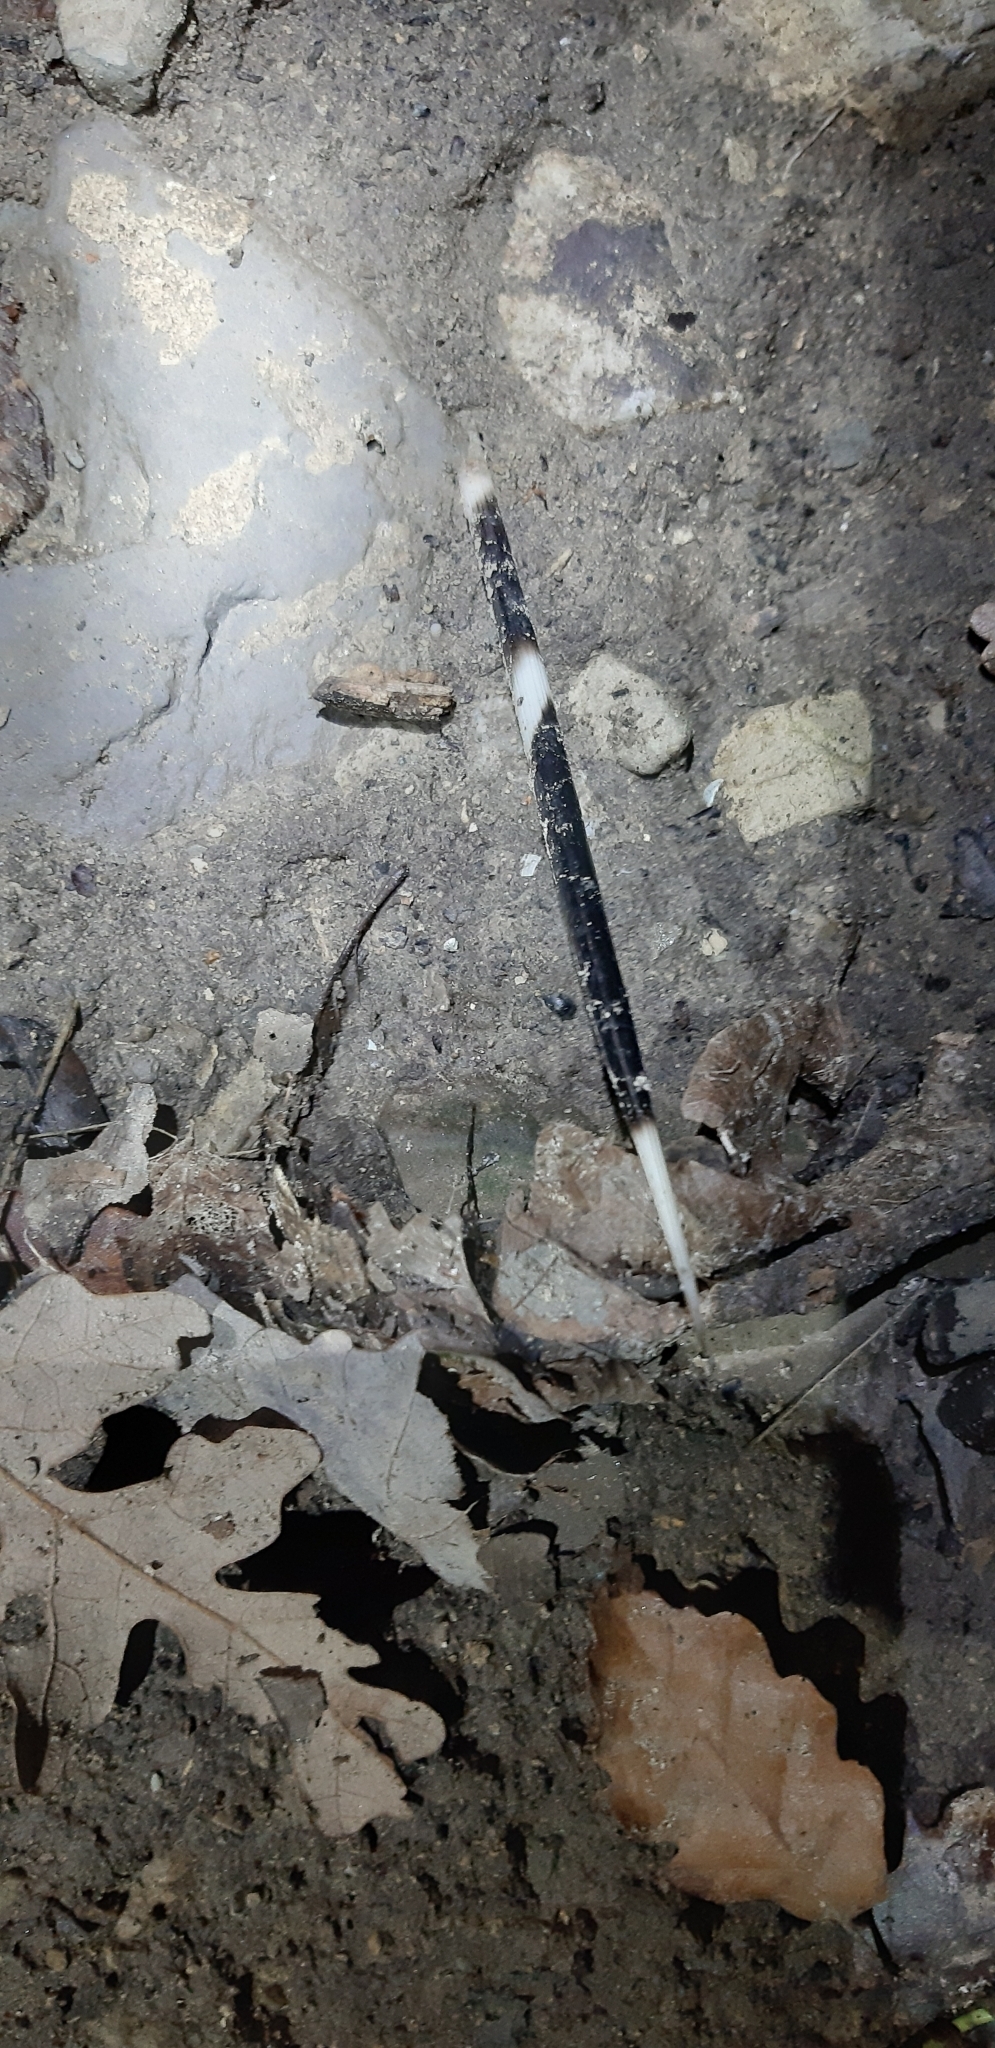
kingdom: Animalia
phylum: Chordata
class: Mammalia
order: Rodentia
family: Hystricidae
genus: Hystrix
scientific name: Hystrix cristata
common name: Crested porcupine
